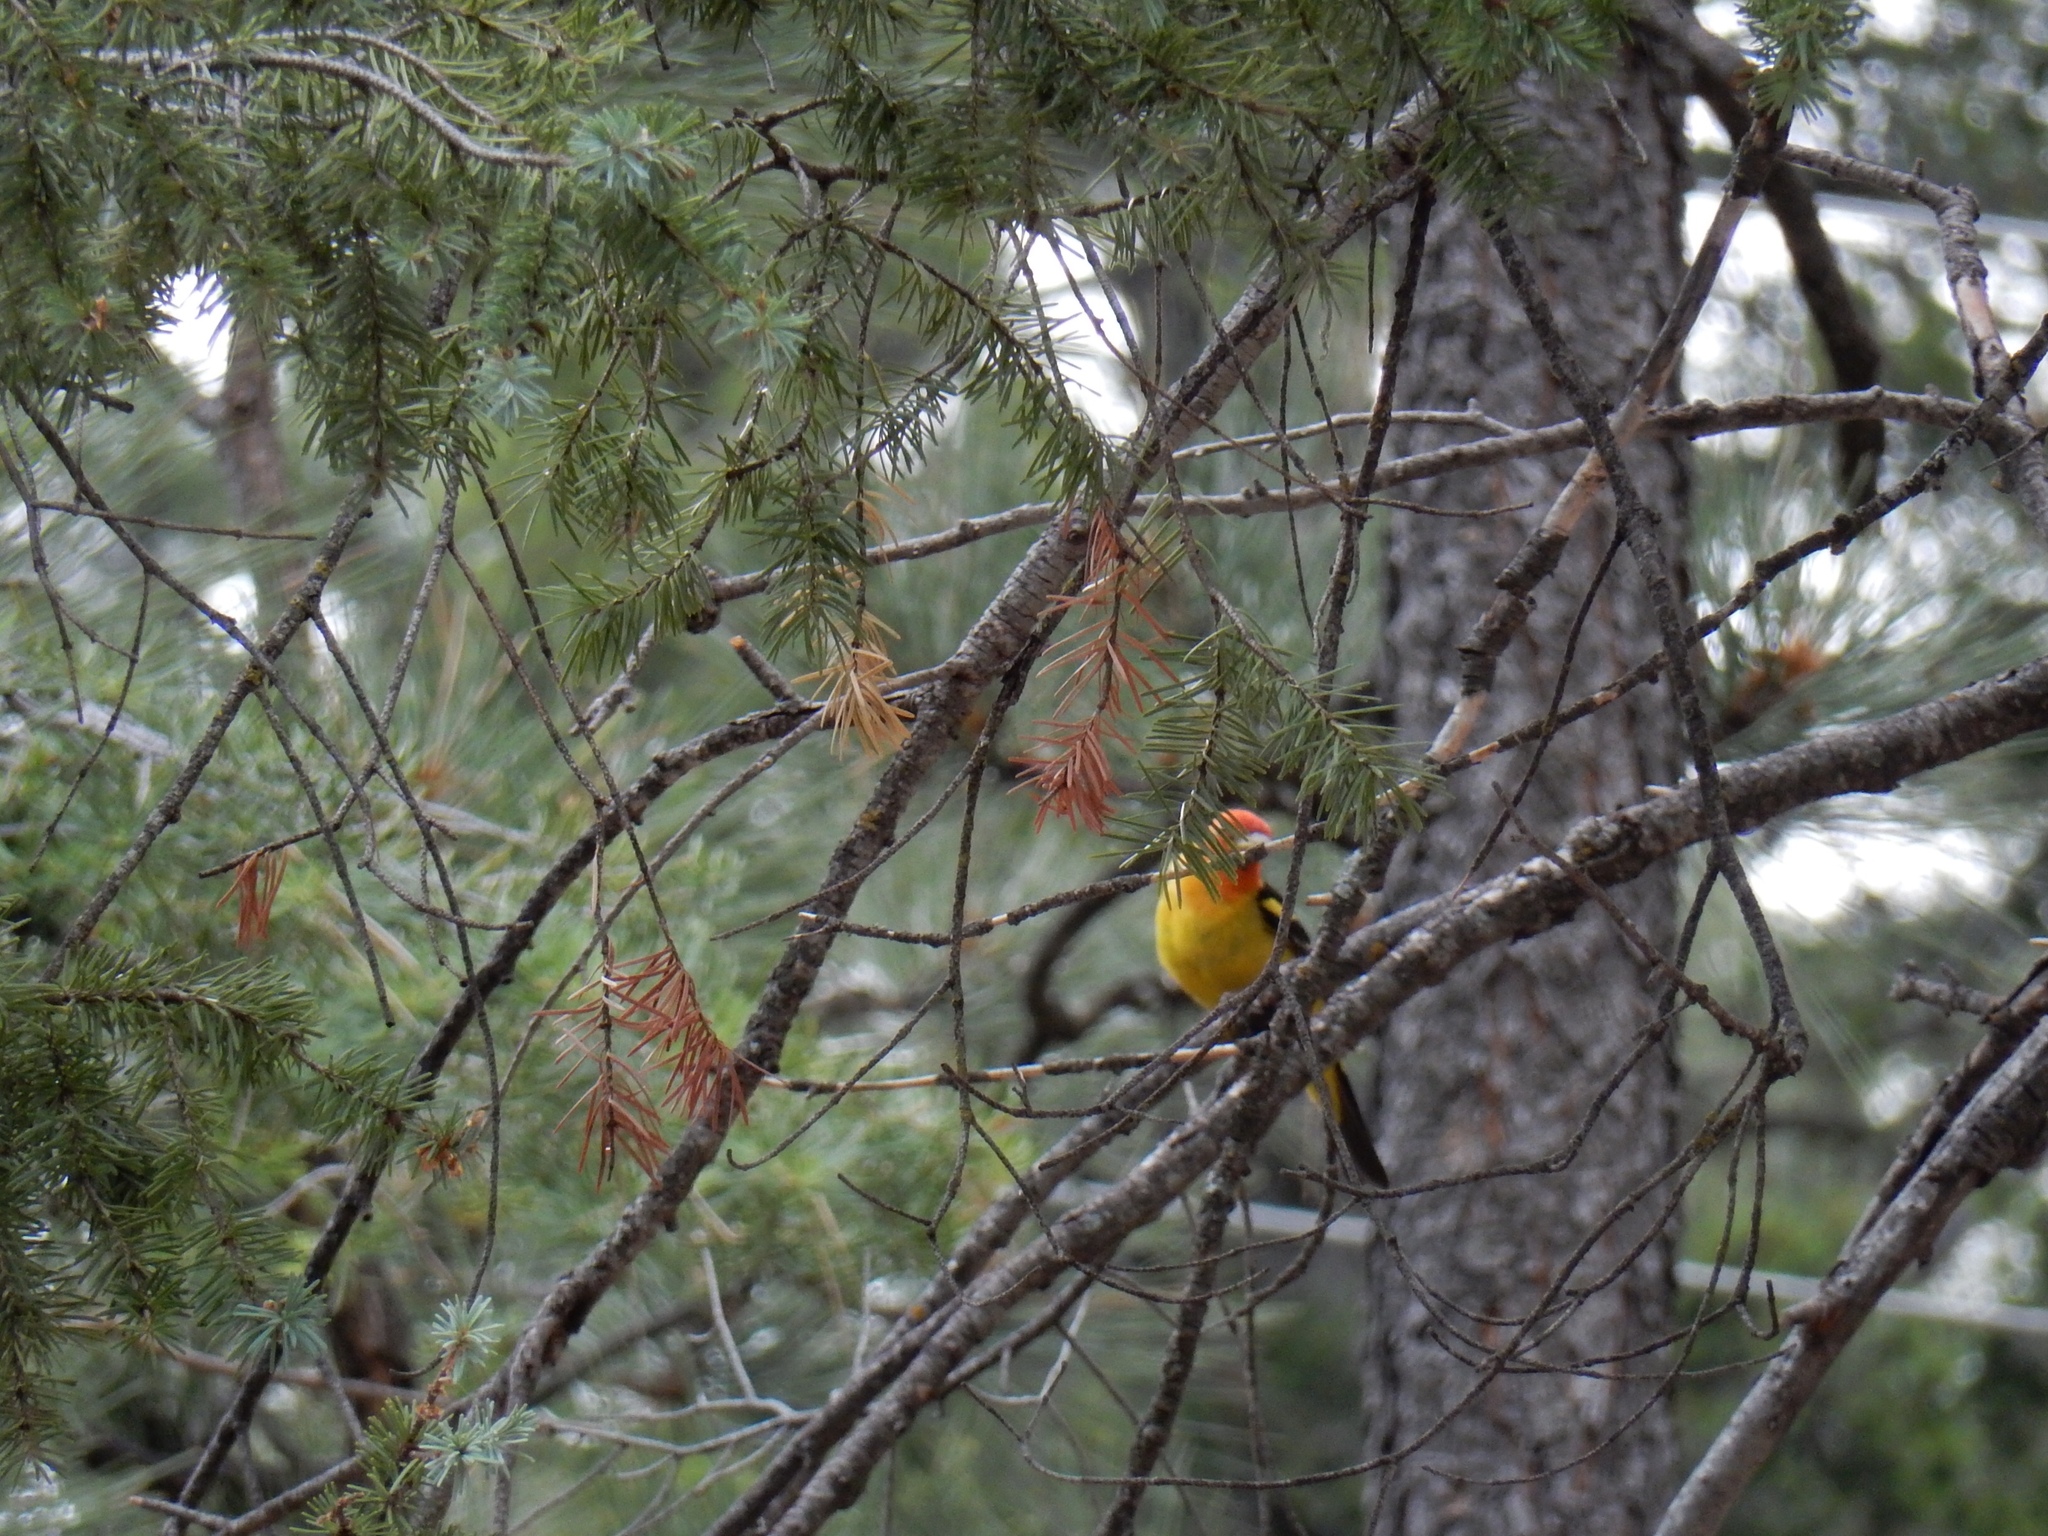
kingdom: Animalia
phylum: Chordata
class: Aves
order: Passeriformes
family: Cardinalidae
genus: Piranga
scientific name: Piranga ludoviciana
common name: Western tanager
